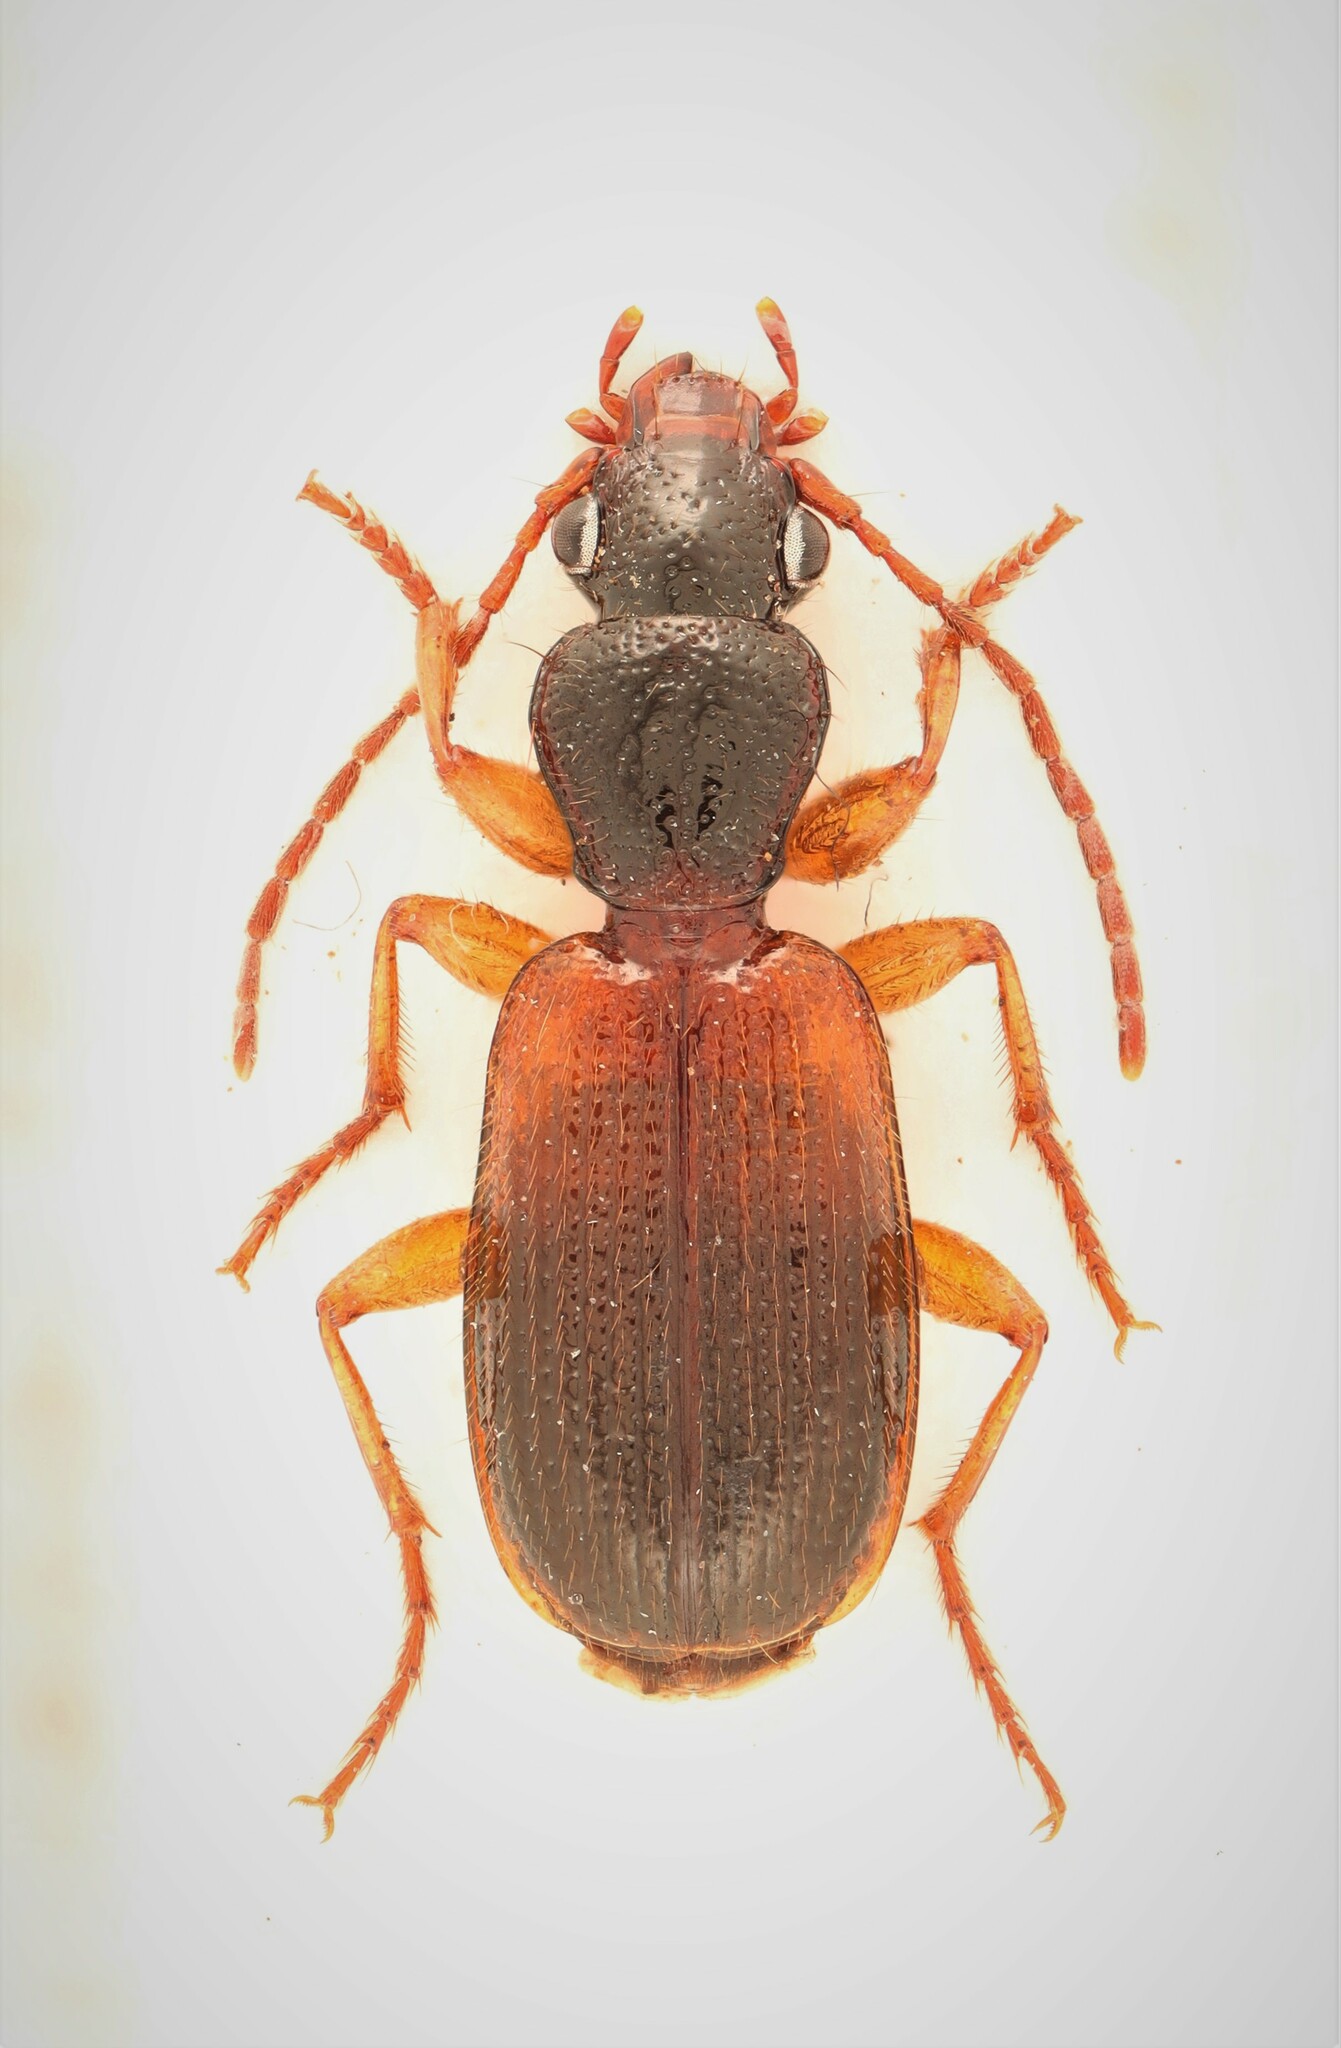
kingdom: Animalia
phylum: Arthropoda
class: Insecta
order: Coleoptera
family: Carabidae
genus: Cymindis
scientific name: Cymindis neglecta
